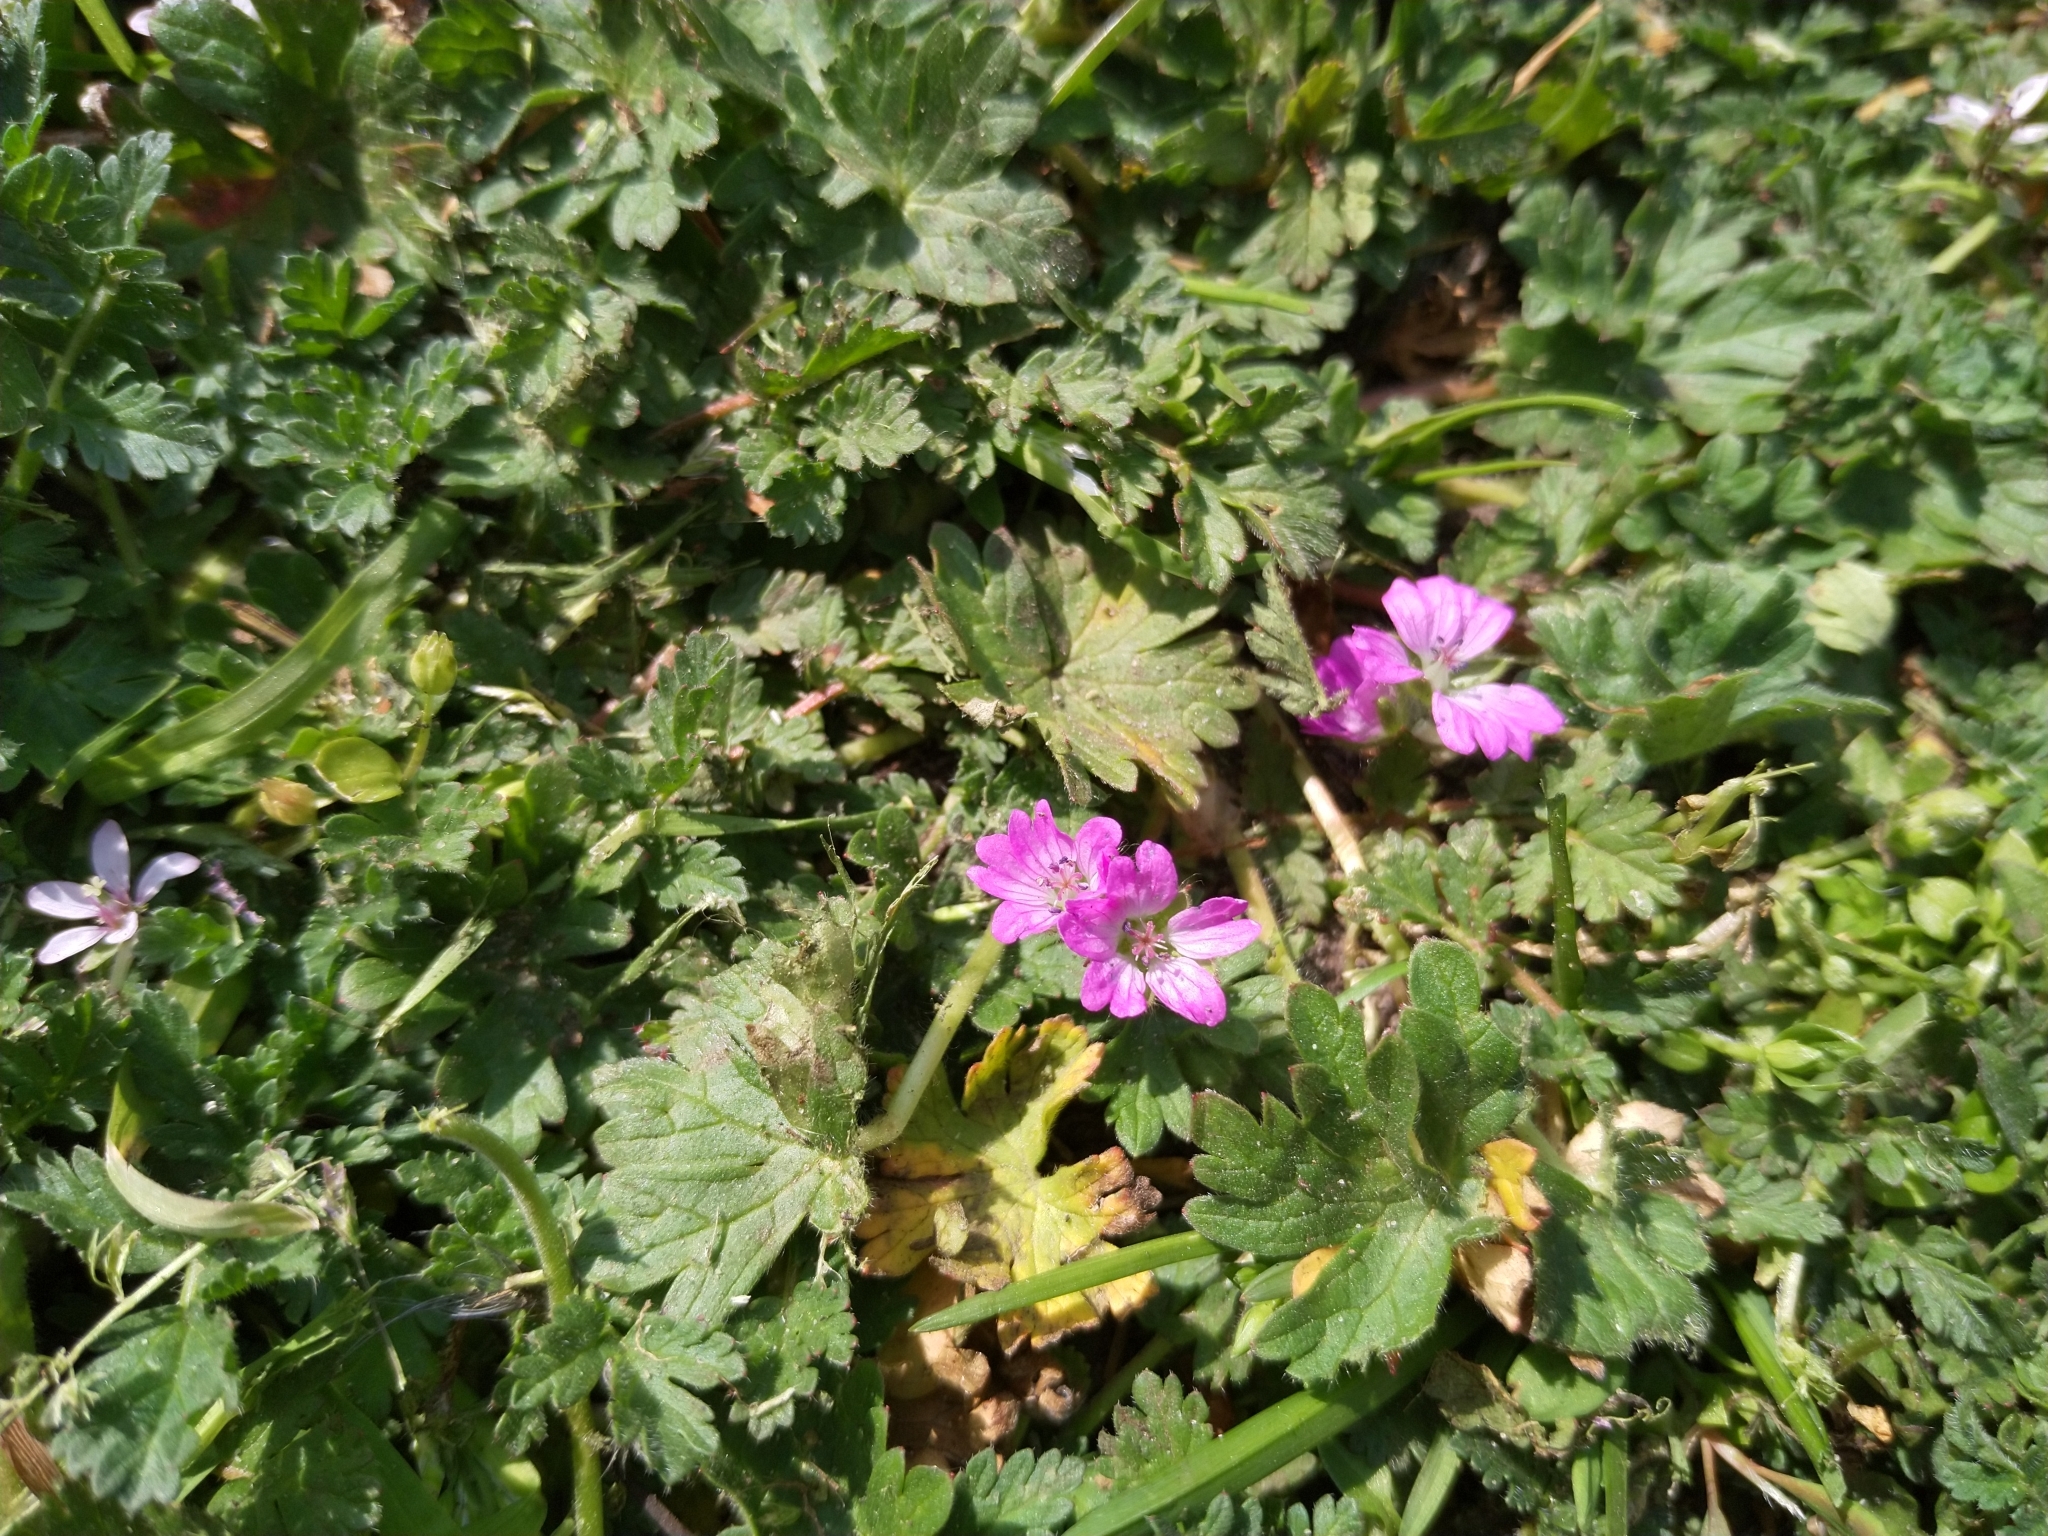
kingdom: Plantae
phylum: Tracheophyta
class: Magnoliopsida
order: Geraniales
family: Geraniaceae
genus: Geranium
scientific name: Geranium molle
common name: Dove's-foot crane's-bill
